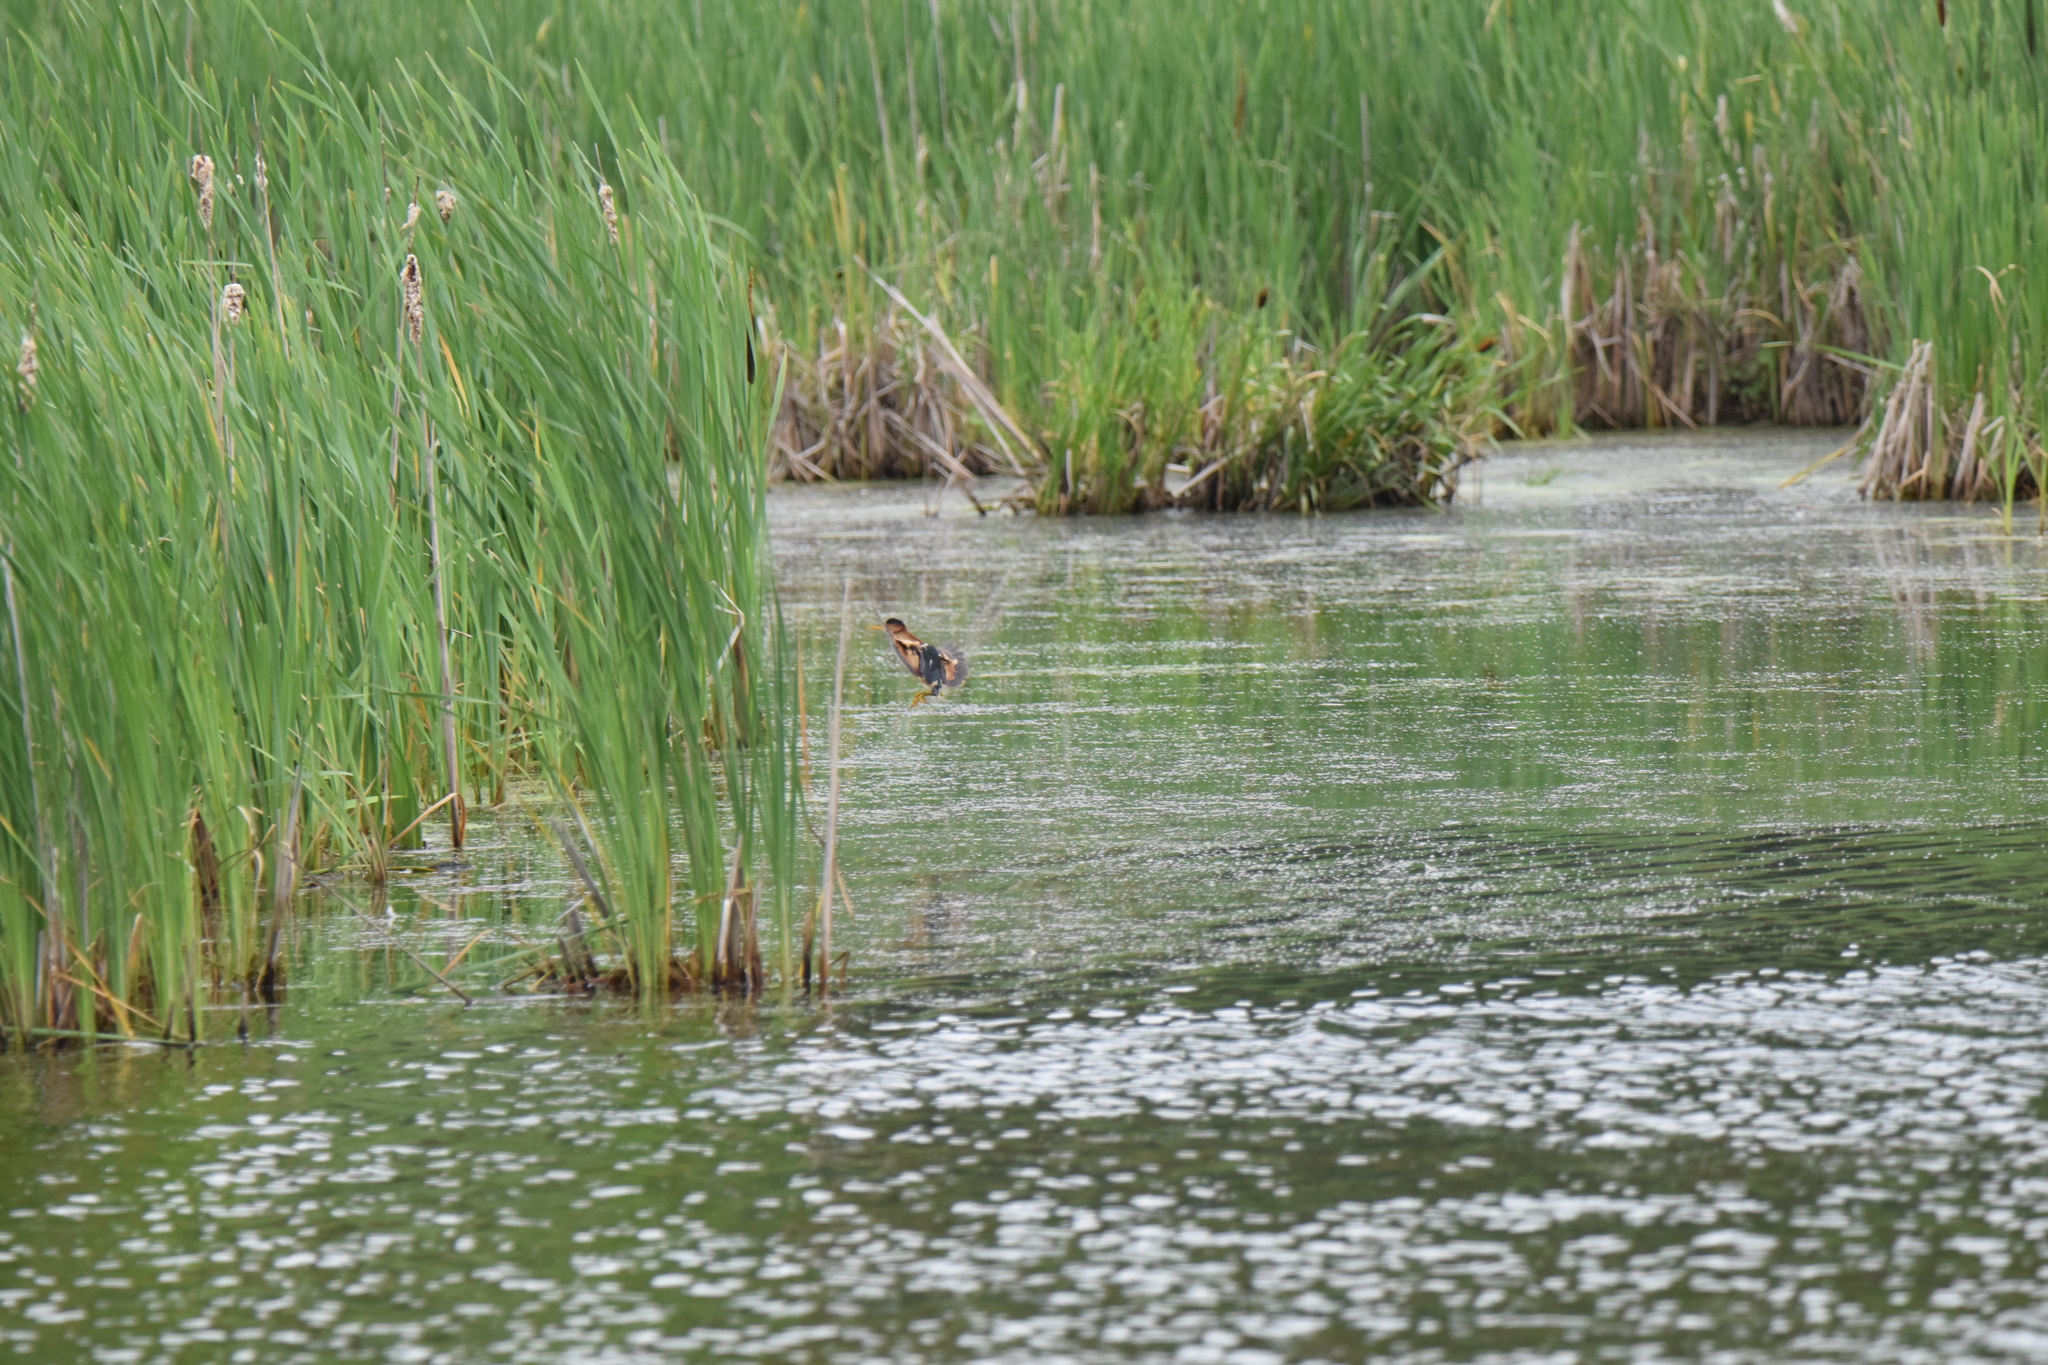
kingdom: Animalia
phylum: Chordata
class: Aves
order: Pelecaniformes
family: Ardeidae
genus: Ixobrychus
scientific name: Ixobrychus exilis
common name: Least bittern
